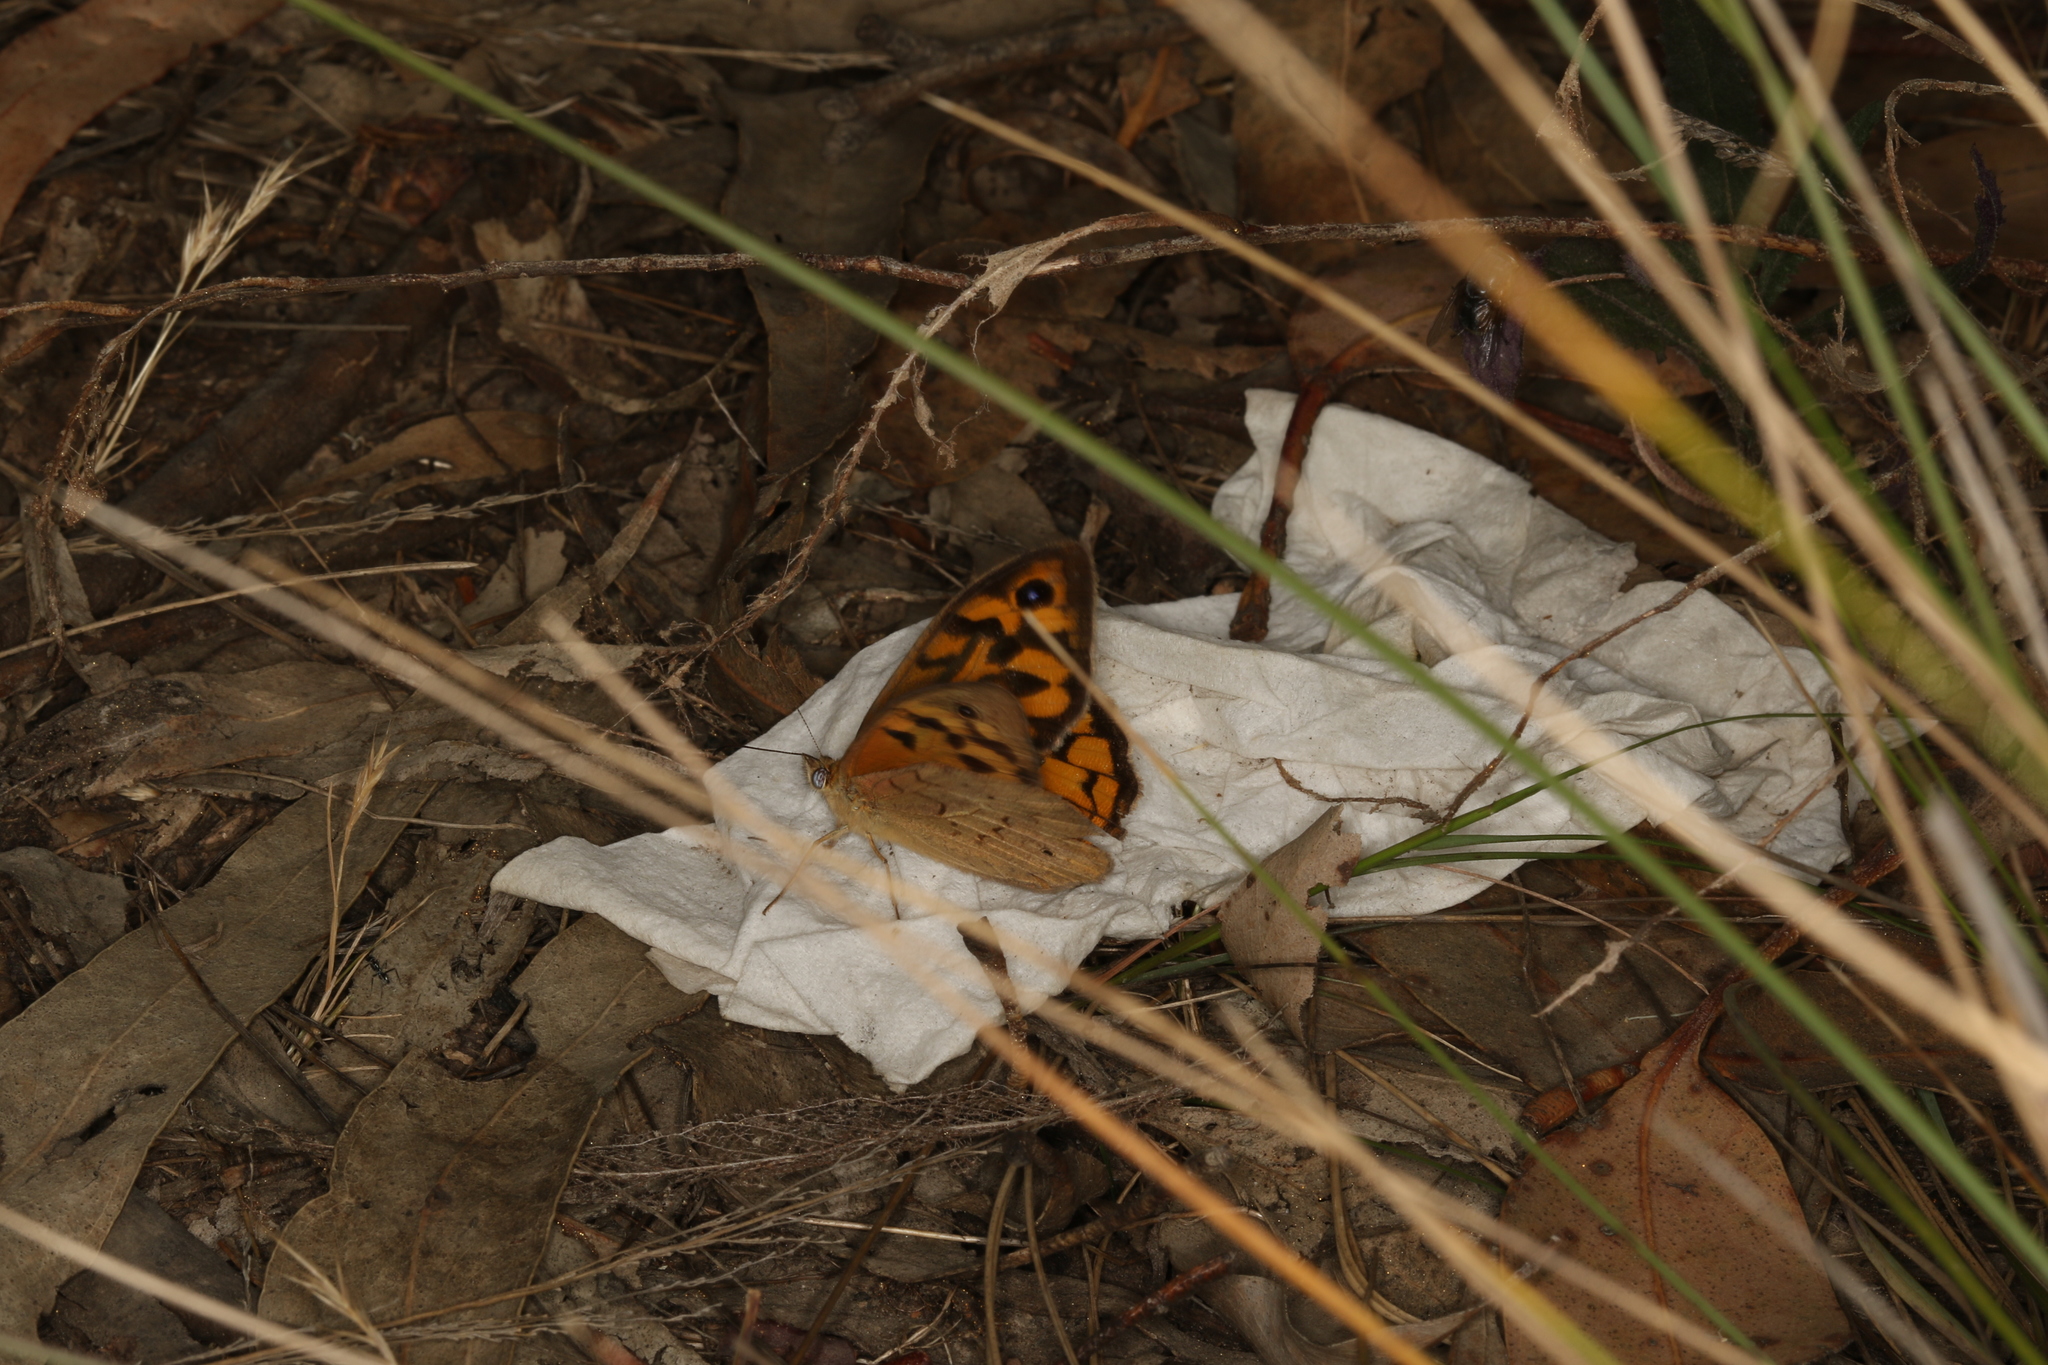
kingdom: Animalia
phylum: Arthropoda
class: Insecta
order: Lepidoptera
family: Nymphalidae
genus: Heteronympha
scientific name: Heteronympha merope
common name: Common brown
